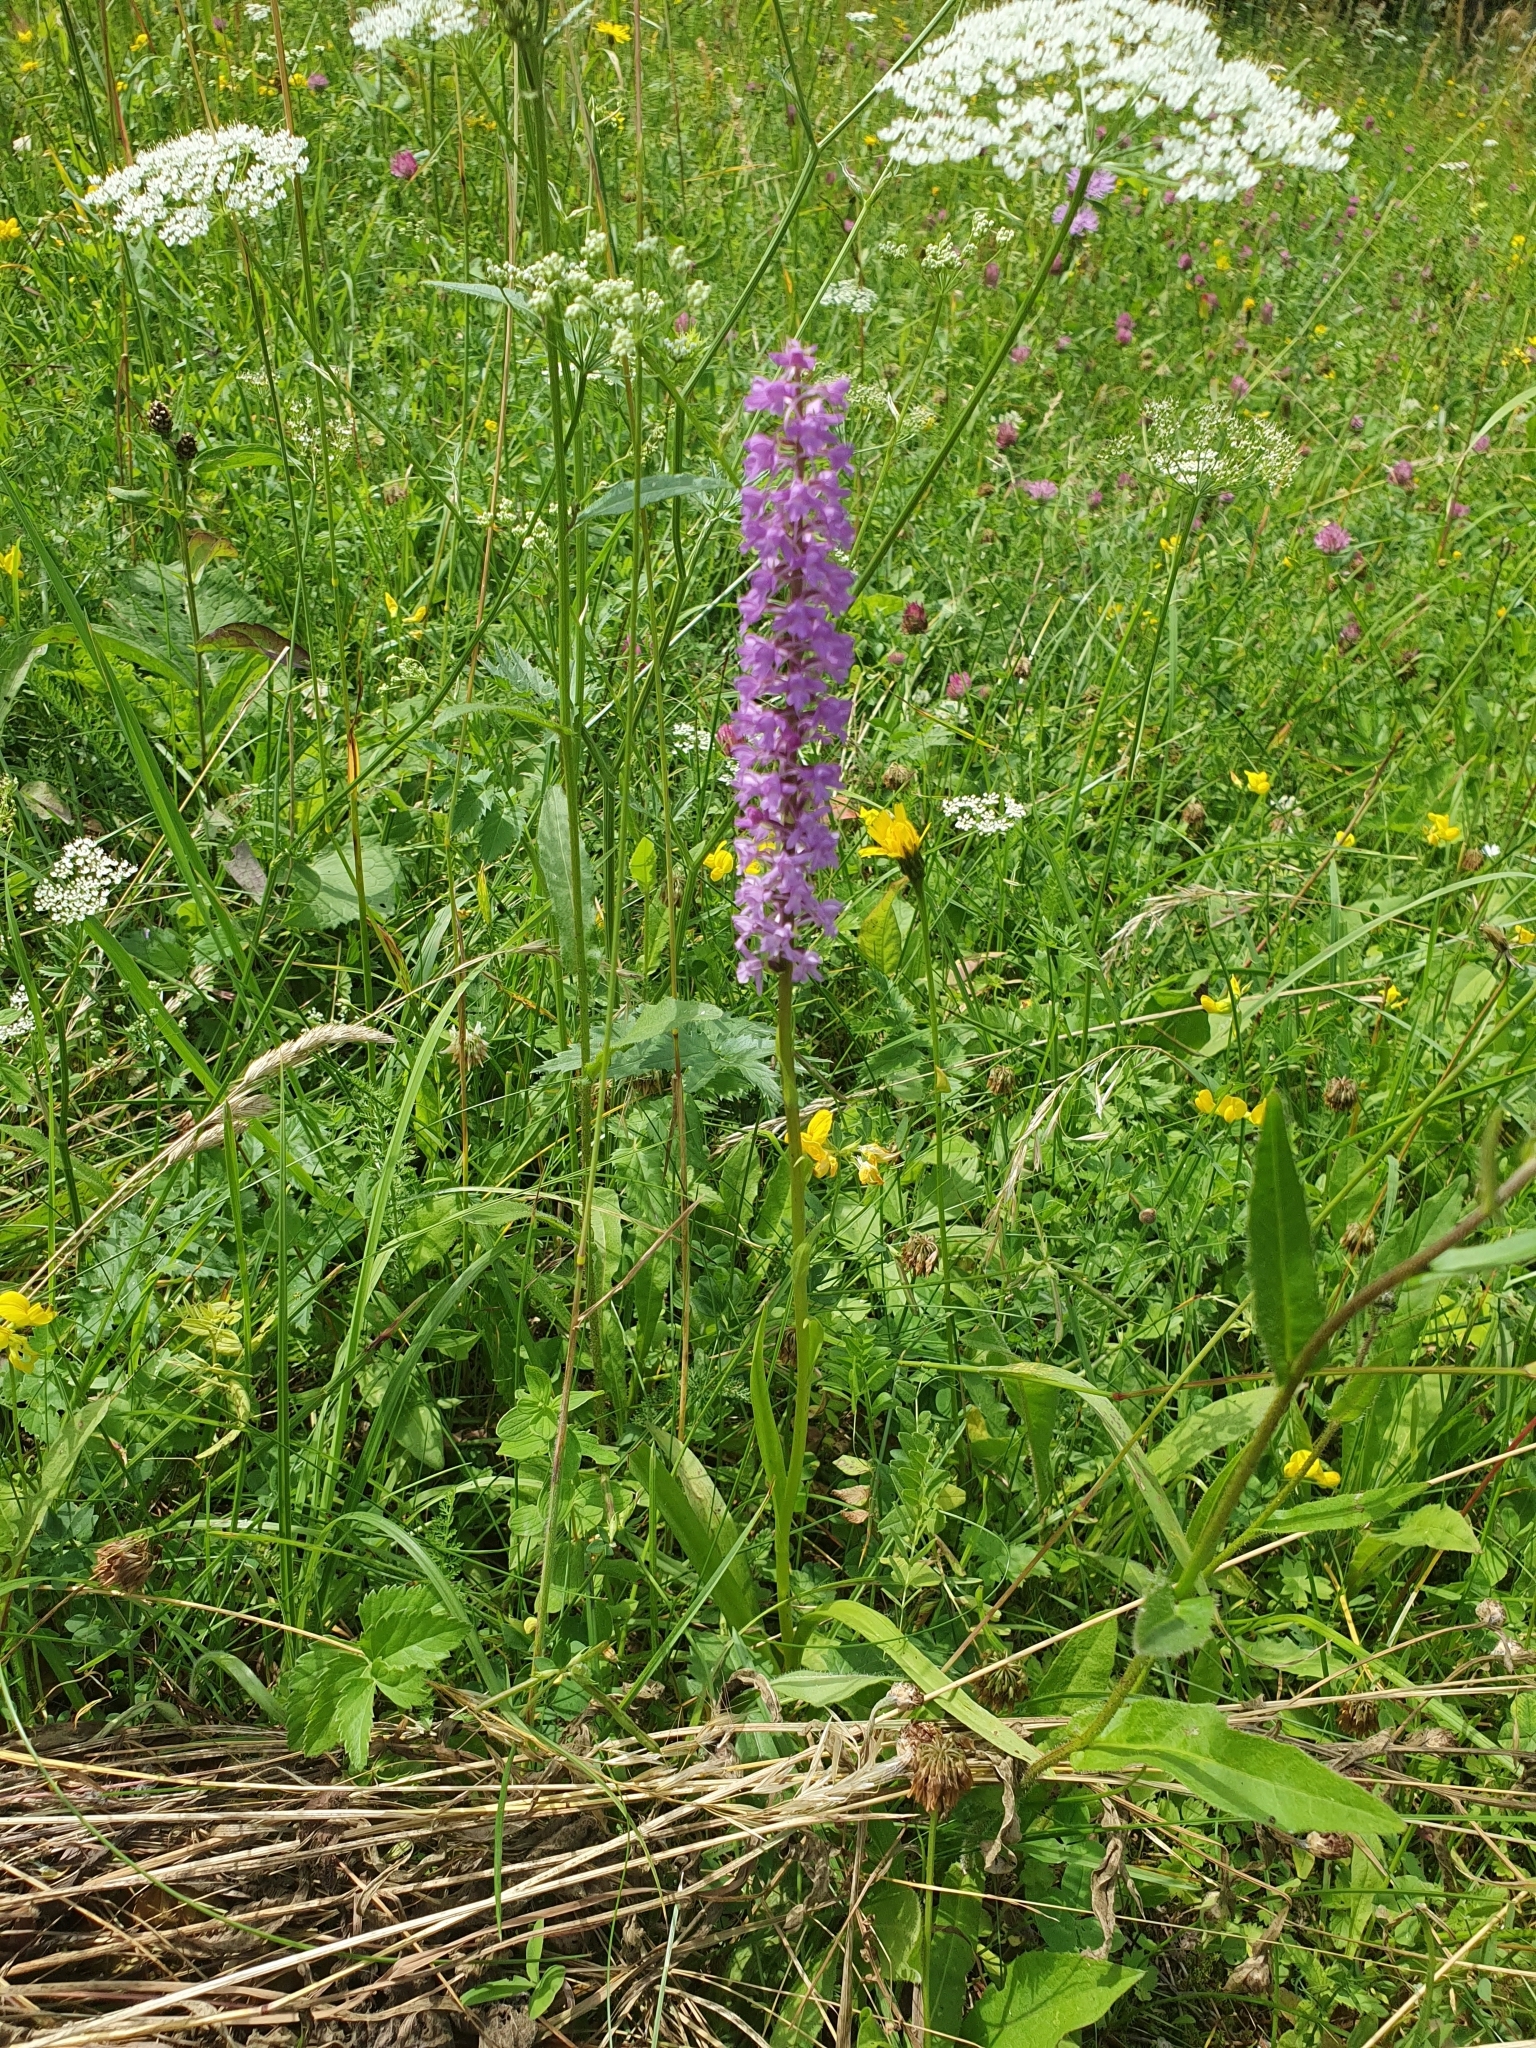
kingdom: Plantae
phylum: Tracheophyta
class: Liliopsida
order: Asparagales
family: Orchidaceae
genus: Gymnadenia
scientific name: Gymnadenia conopsea
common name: Fragrant orchid
